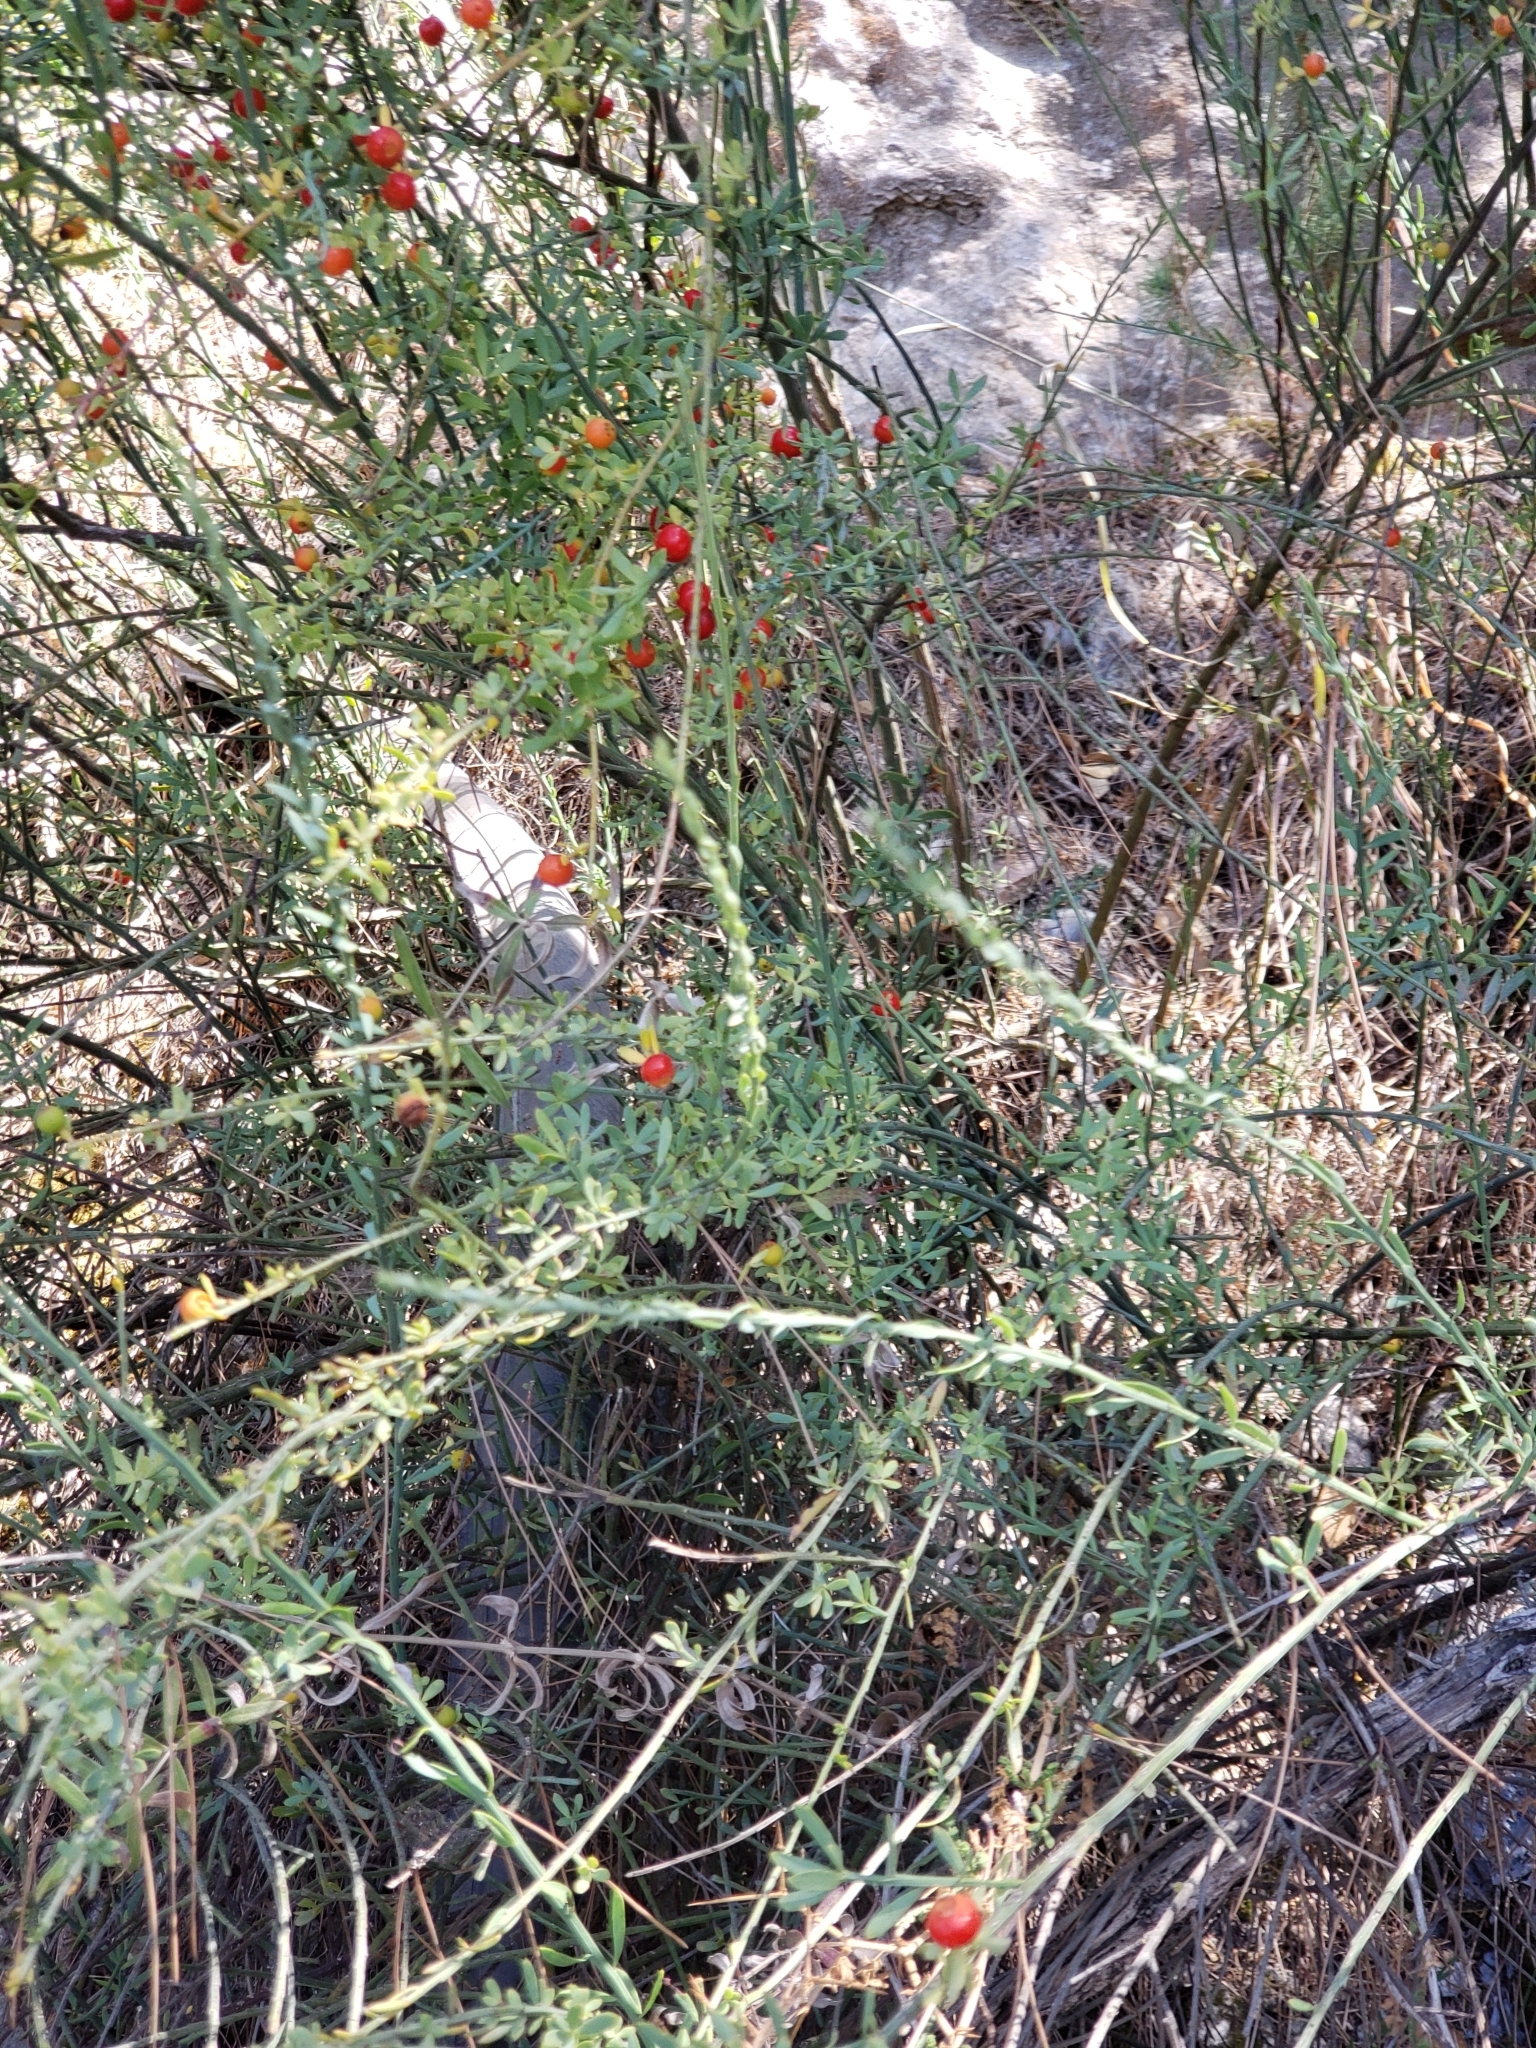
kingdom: Plantae
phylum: Tracheophyta
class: Magnoliopsida
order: Santalales
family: Santalaceae
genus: Osyris
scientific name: Osyris alba
